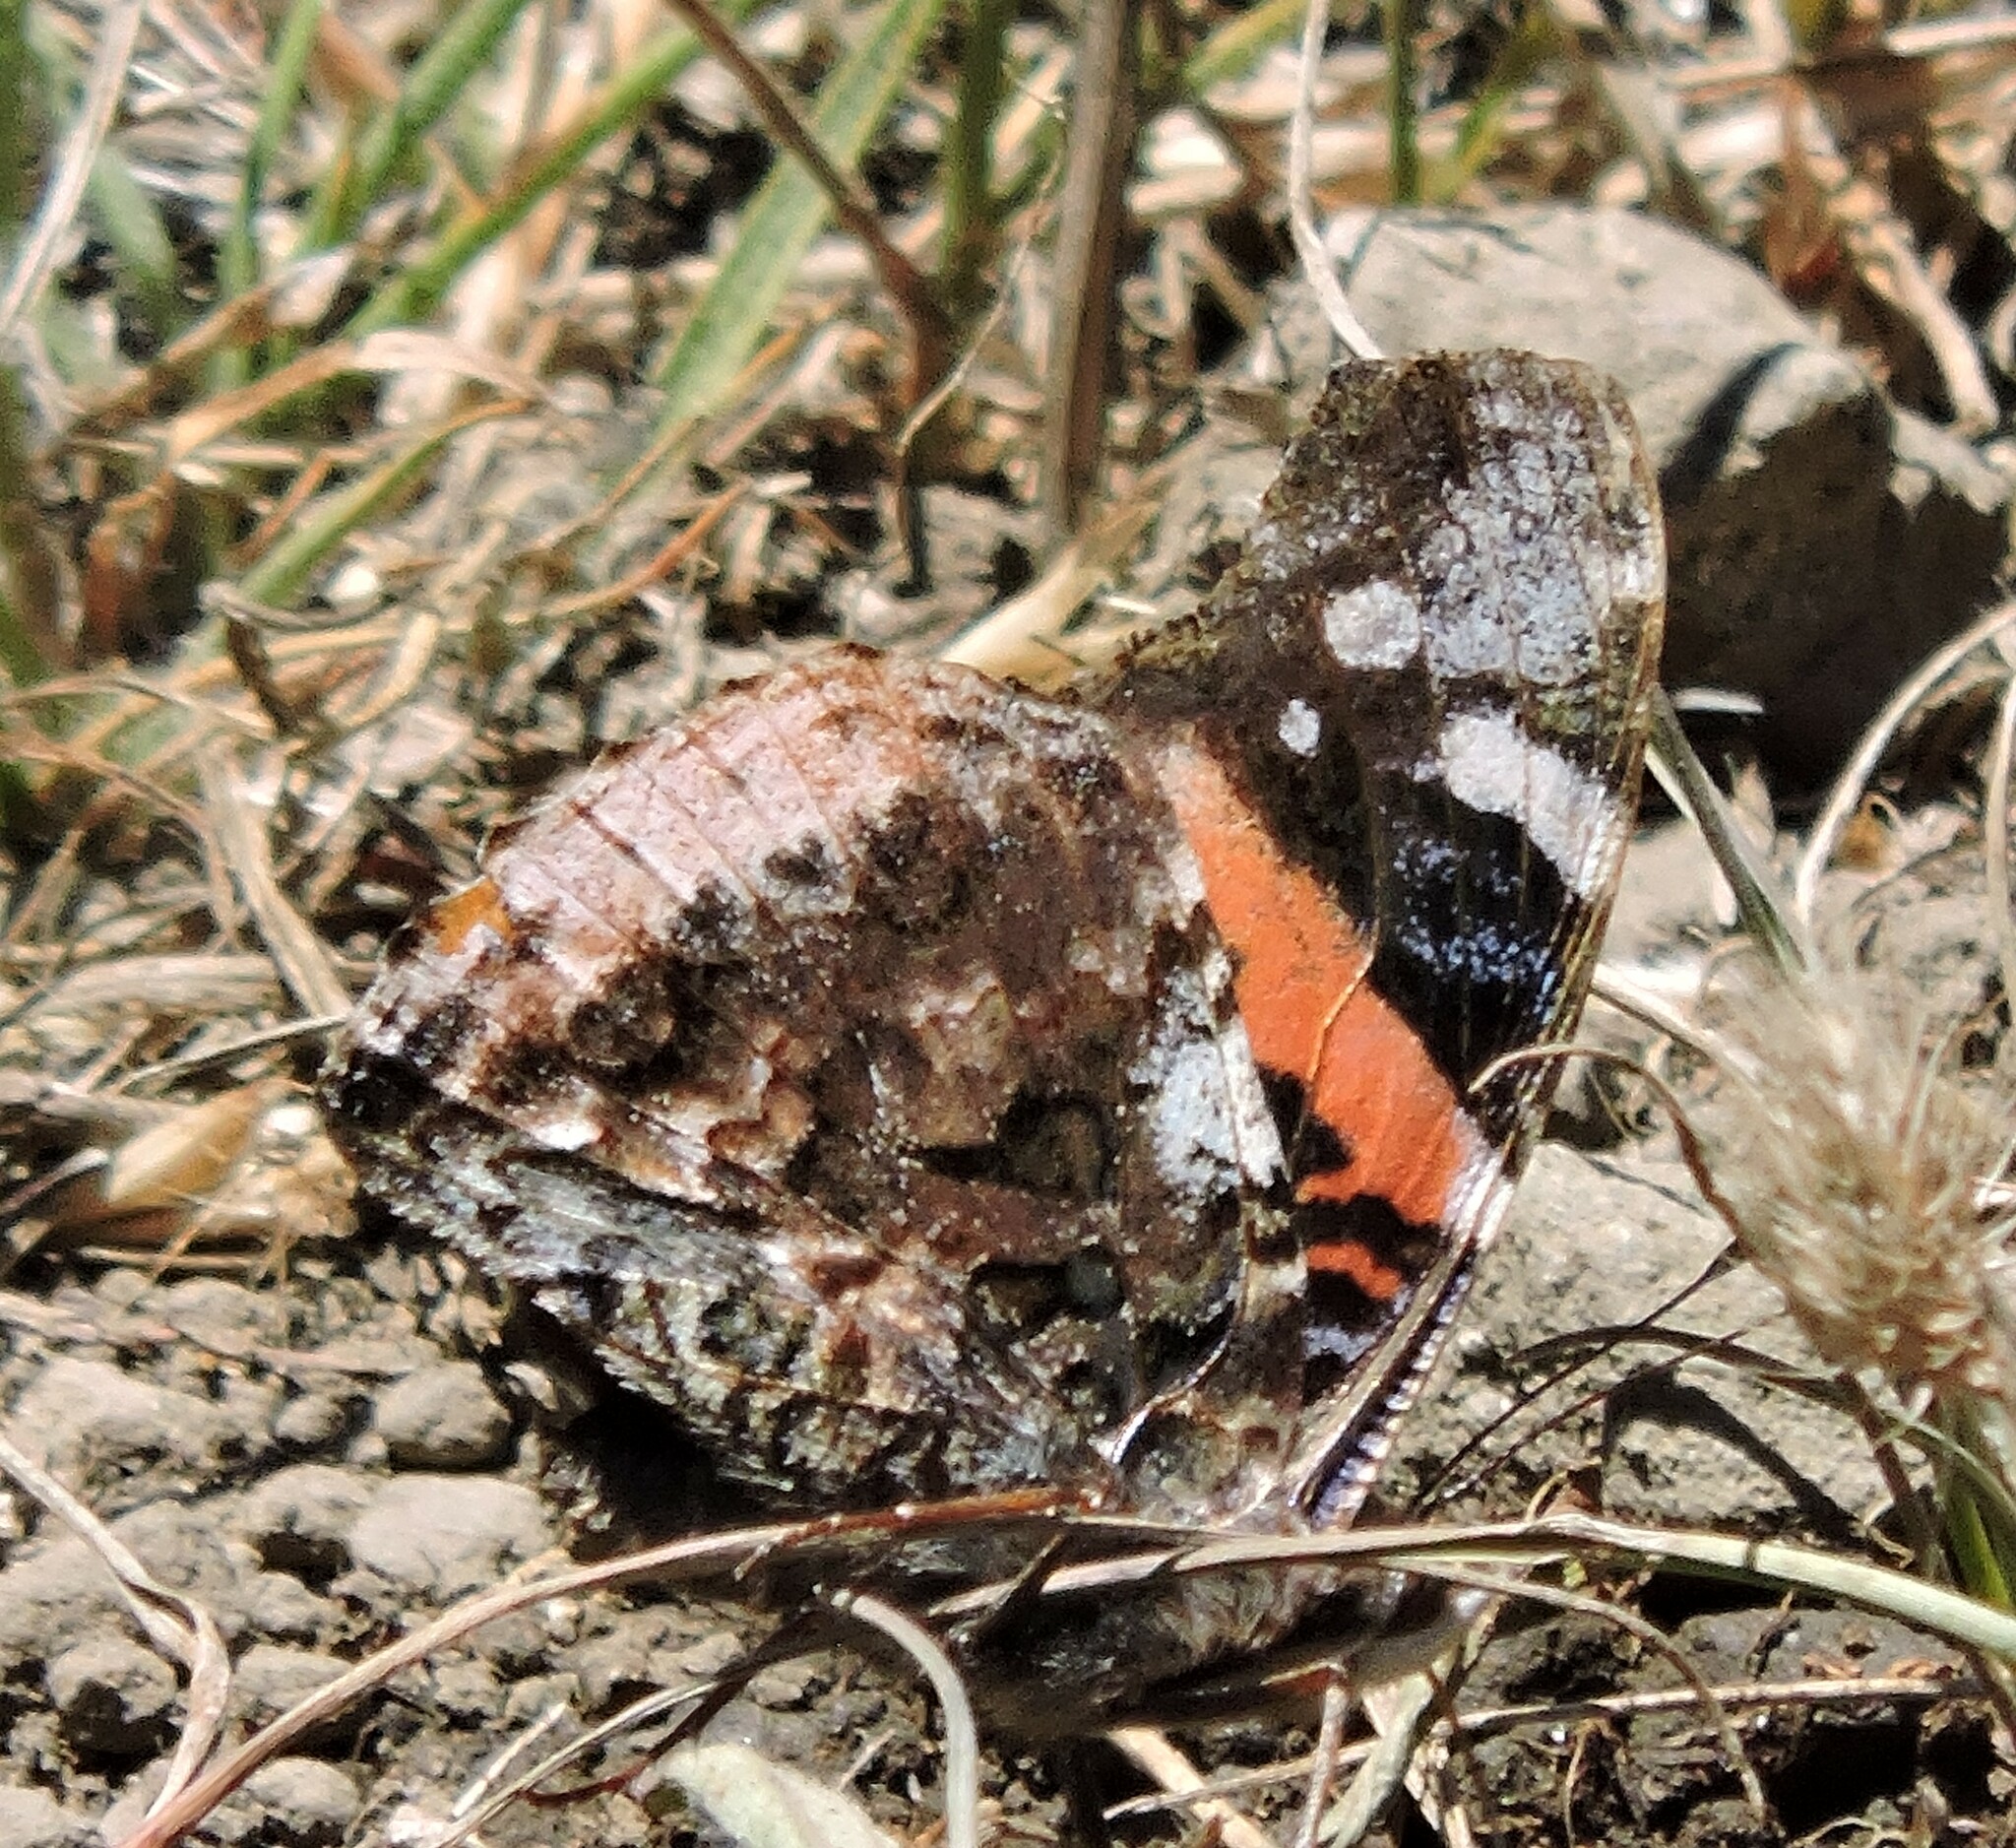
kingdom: Animalia
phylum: Arthropoda
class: Insecta
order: Lepidoptera
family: Nymphalidae
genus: Vanessa
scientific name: Vanessa atalanta
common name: Red admiral
